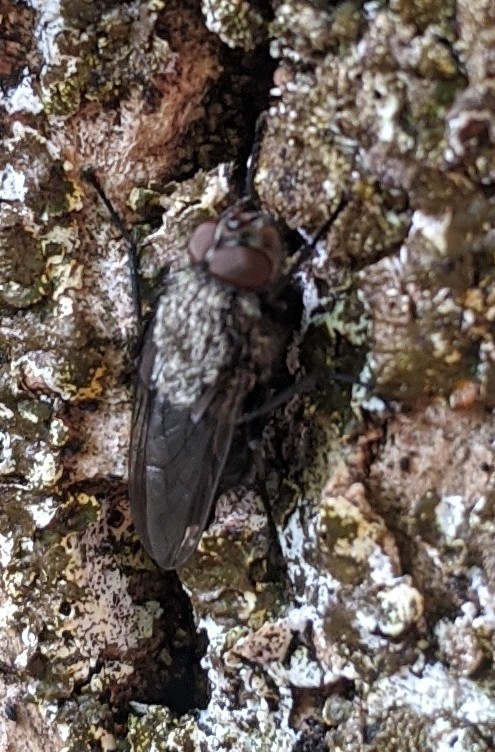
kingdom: Animalia
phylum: Arthropoda
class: Insecta
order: Diptera
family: Polleniidae
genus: Pollenia
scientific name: Pollenia
